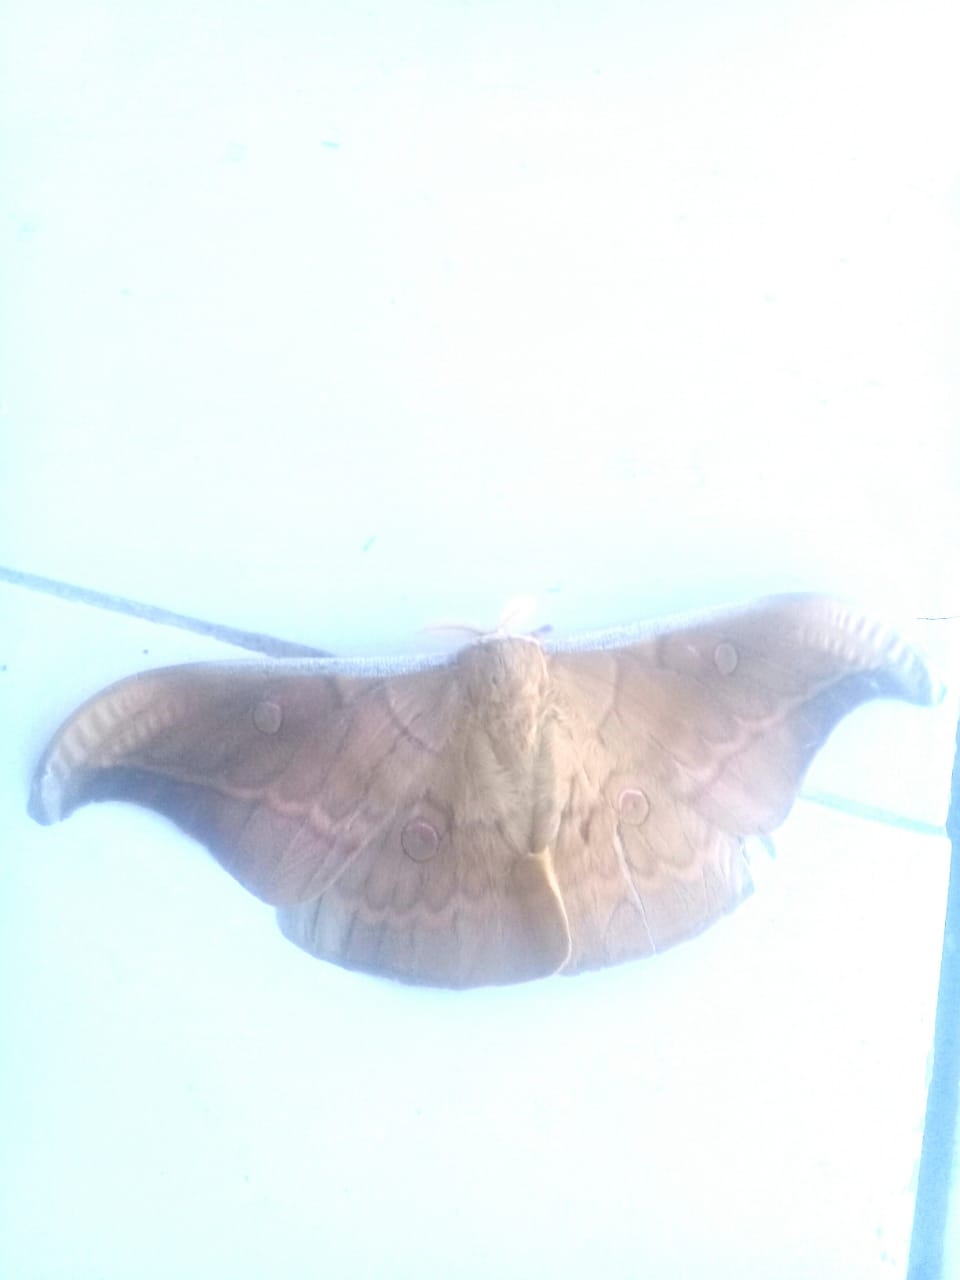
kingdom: Animalia
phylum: Arthropoda
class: Insecta
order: Lepidoptera
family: Saturniidae
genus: Antheraea
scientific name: Antheraea alorensis
